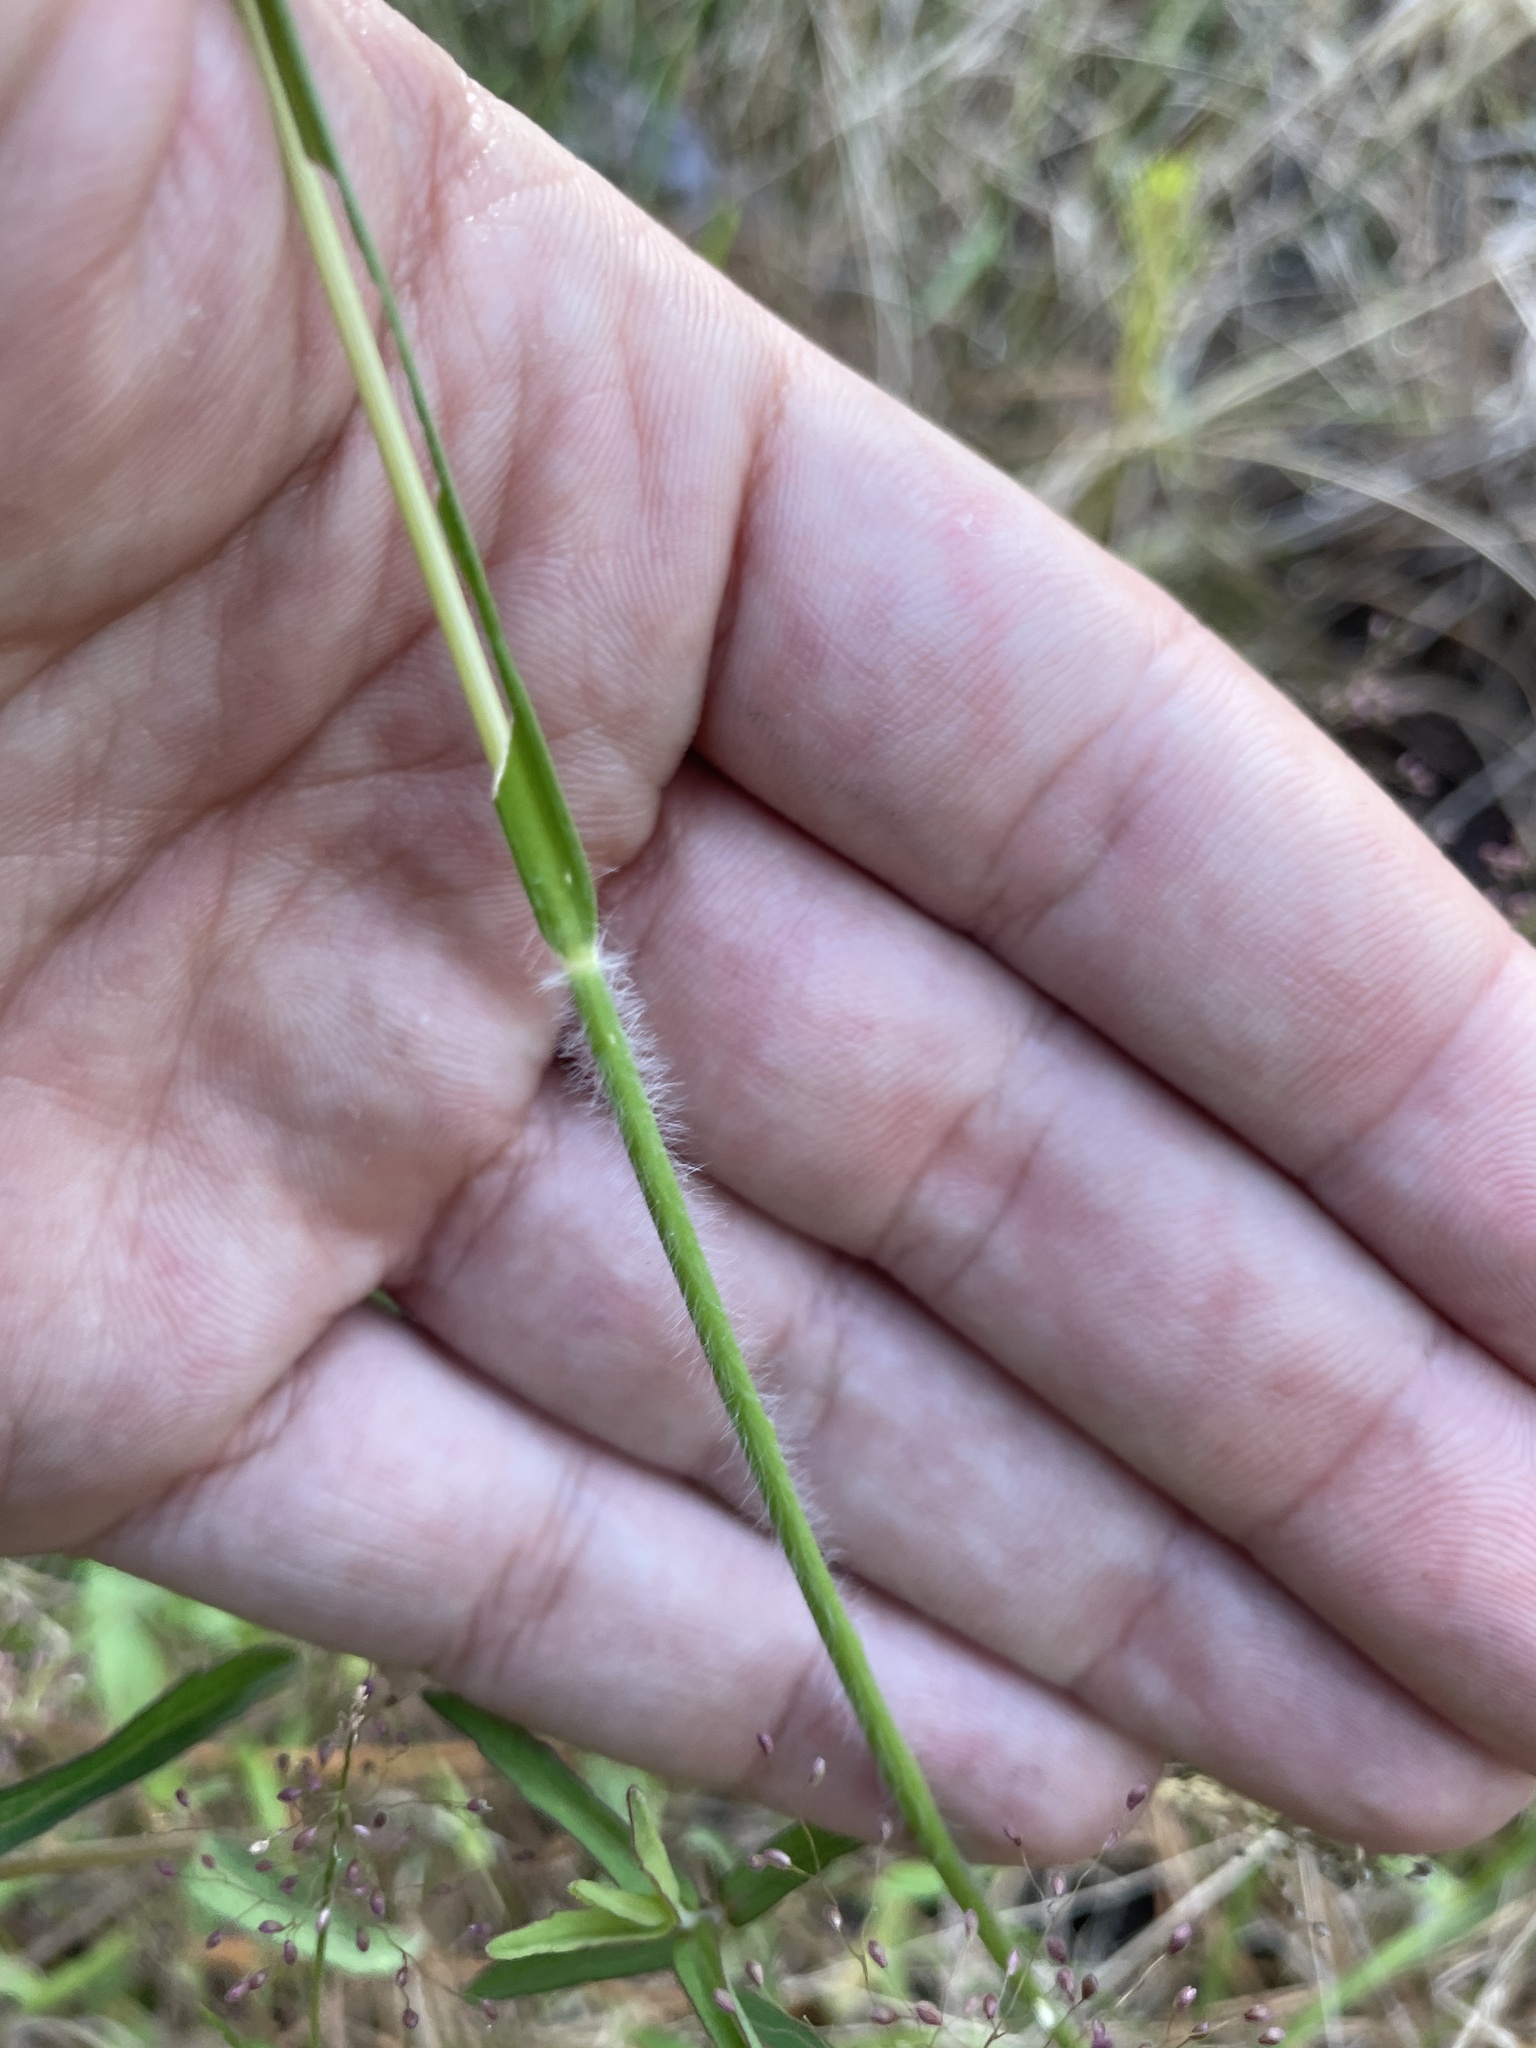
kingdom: Plantae
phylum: Tracheophyta
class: Liliopsida
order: Poales
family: Poaceae
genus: Danthonia
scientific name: Danthonia sericea
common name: Downy danthonia
